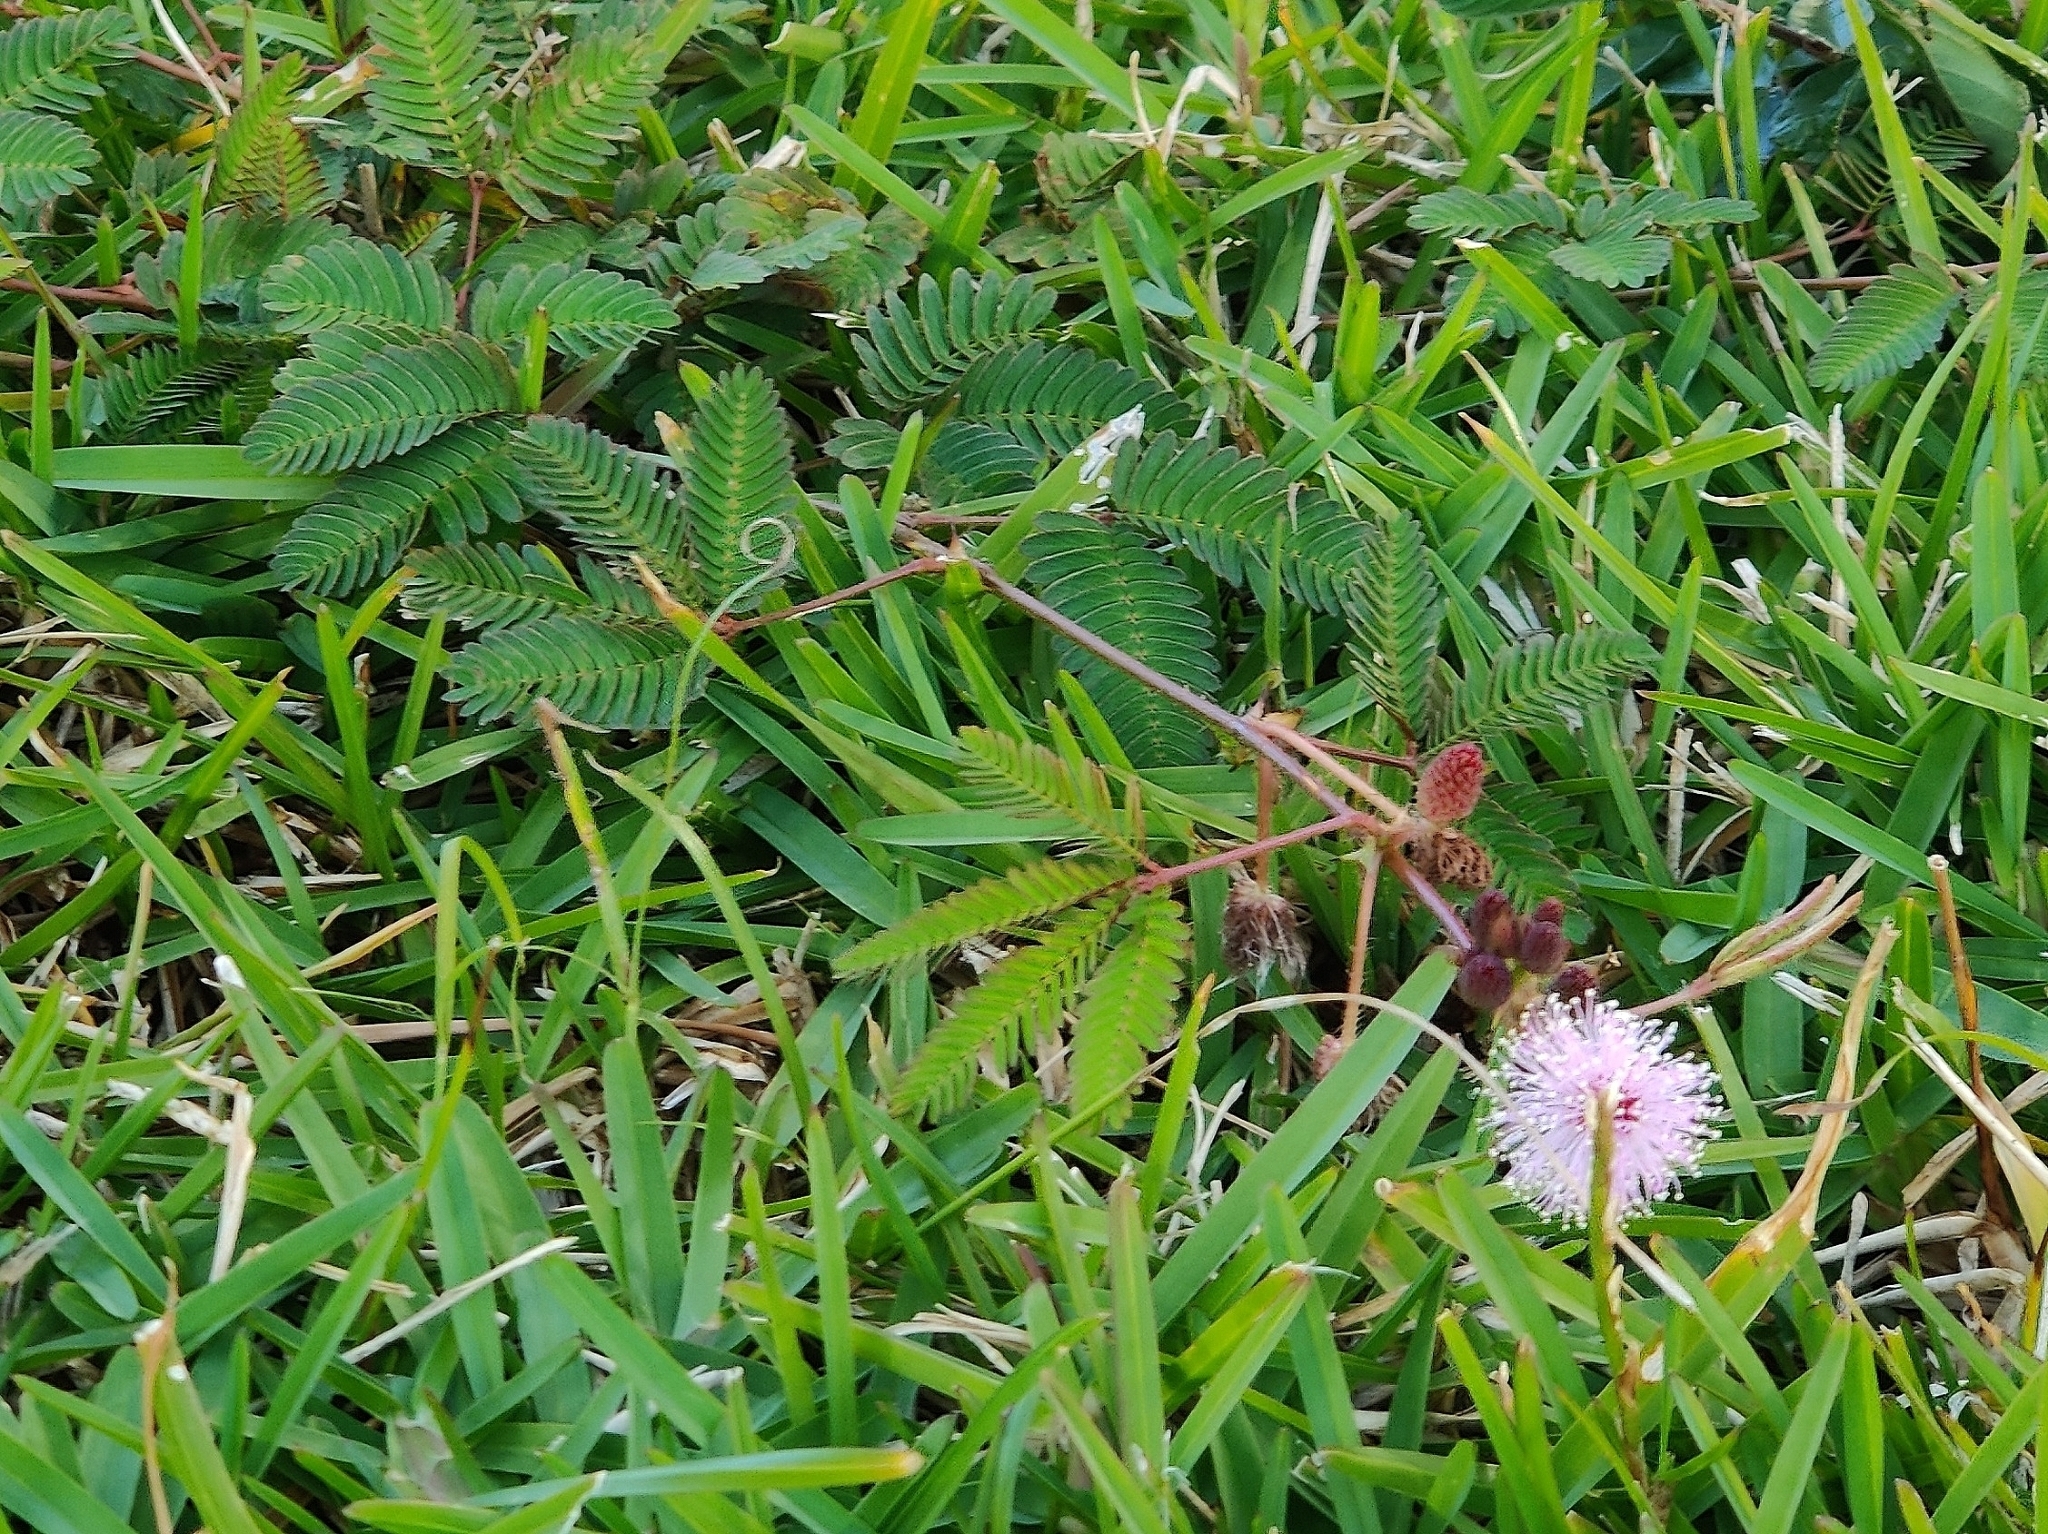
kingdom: Plantae
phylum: Tracheophyta
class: Magnoliopsida
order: Fabales
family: Fabaceae
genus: Mimosa
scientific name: Mimosa pudica
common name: Sensitive plant
